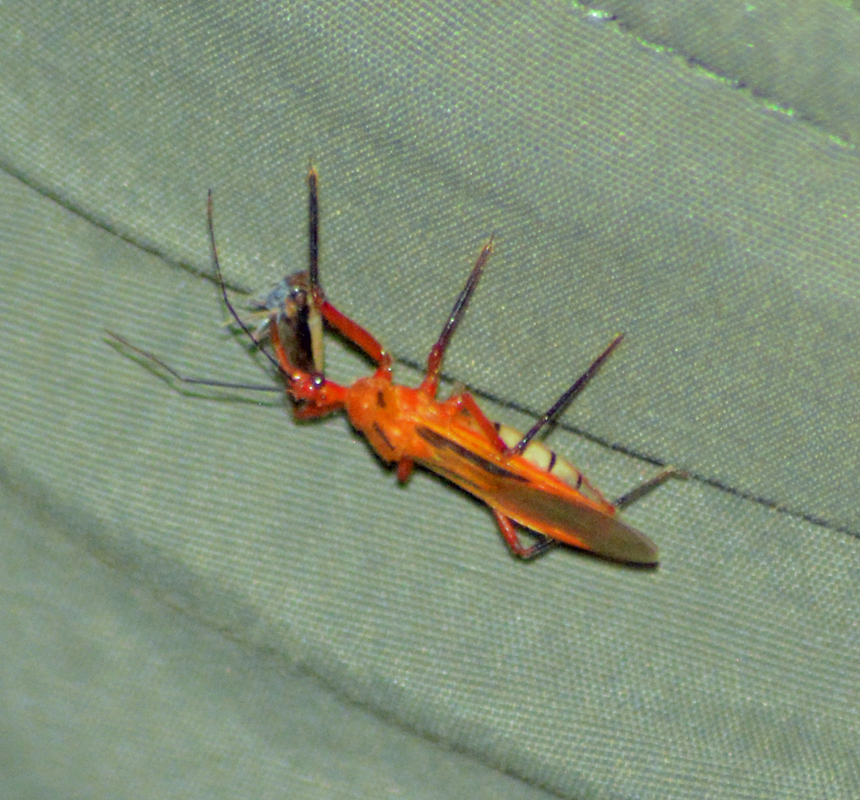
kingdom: Animalia
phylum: Arthropoda
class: Insecta
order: Hemiptera
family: Reduviidae
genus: Repipta
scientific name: Repipta taurus
